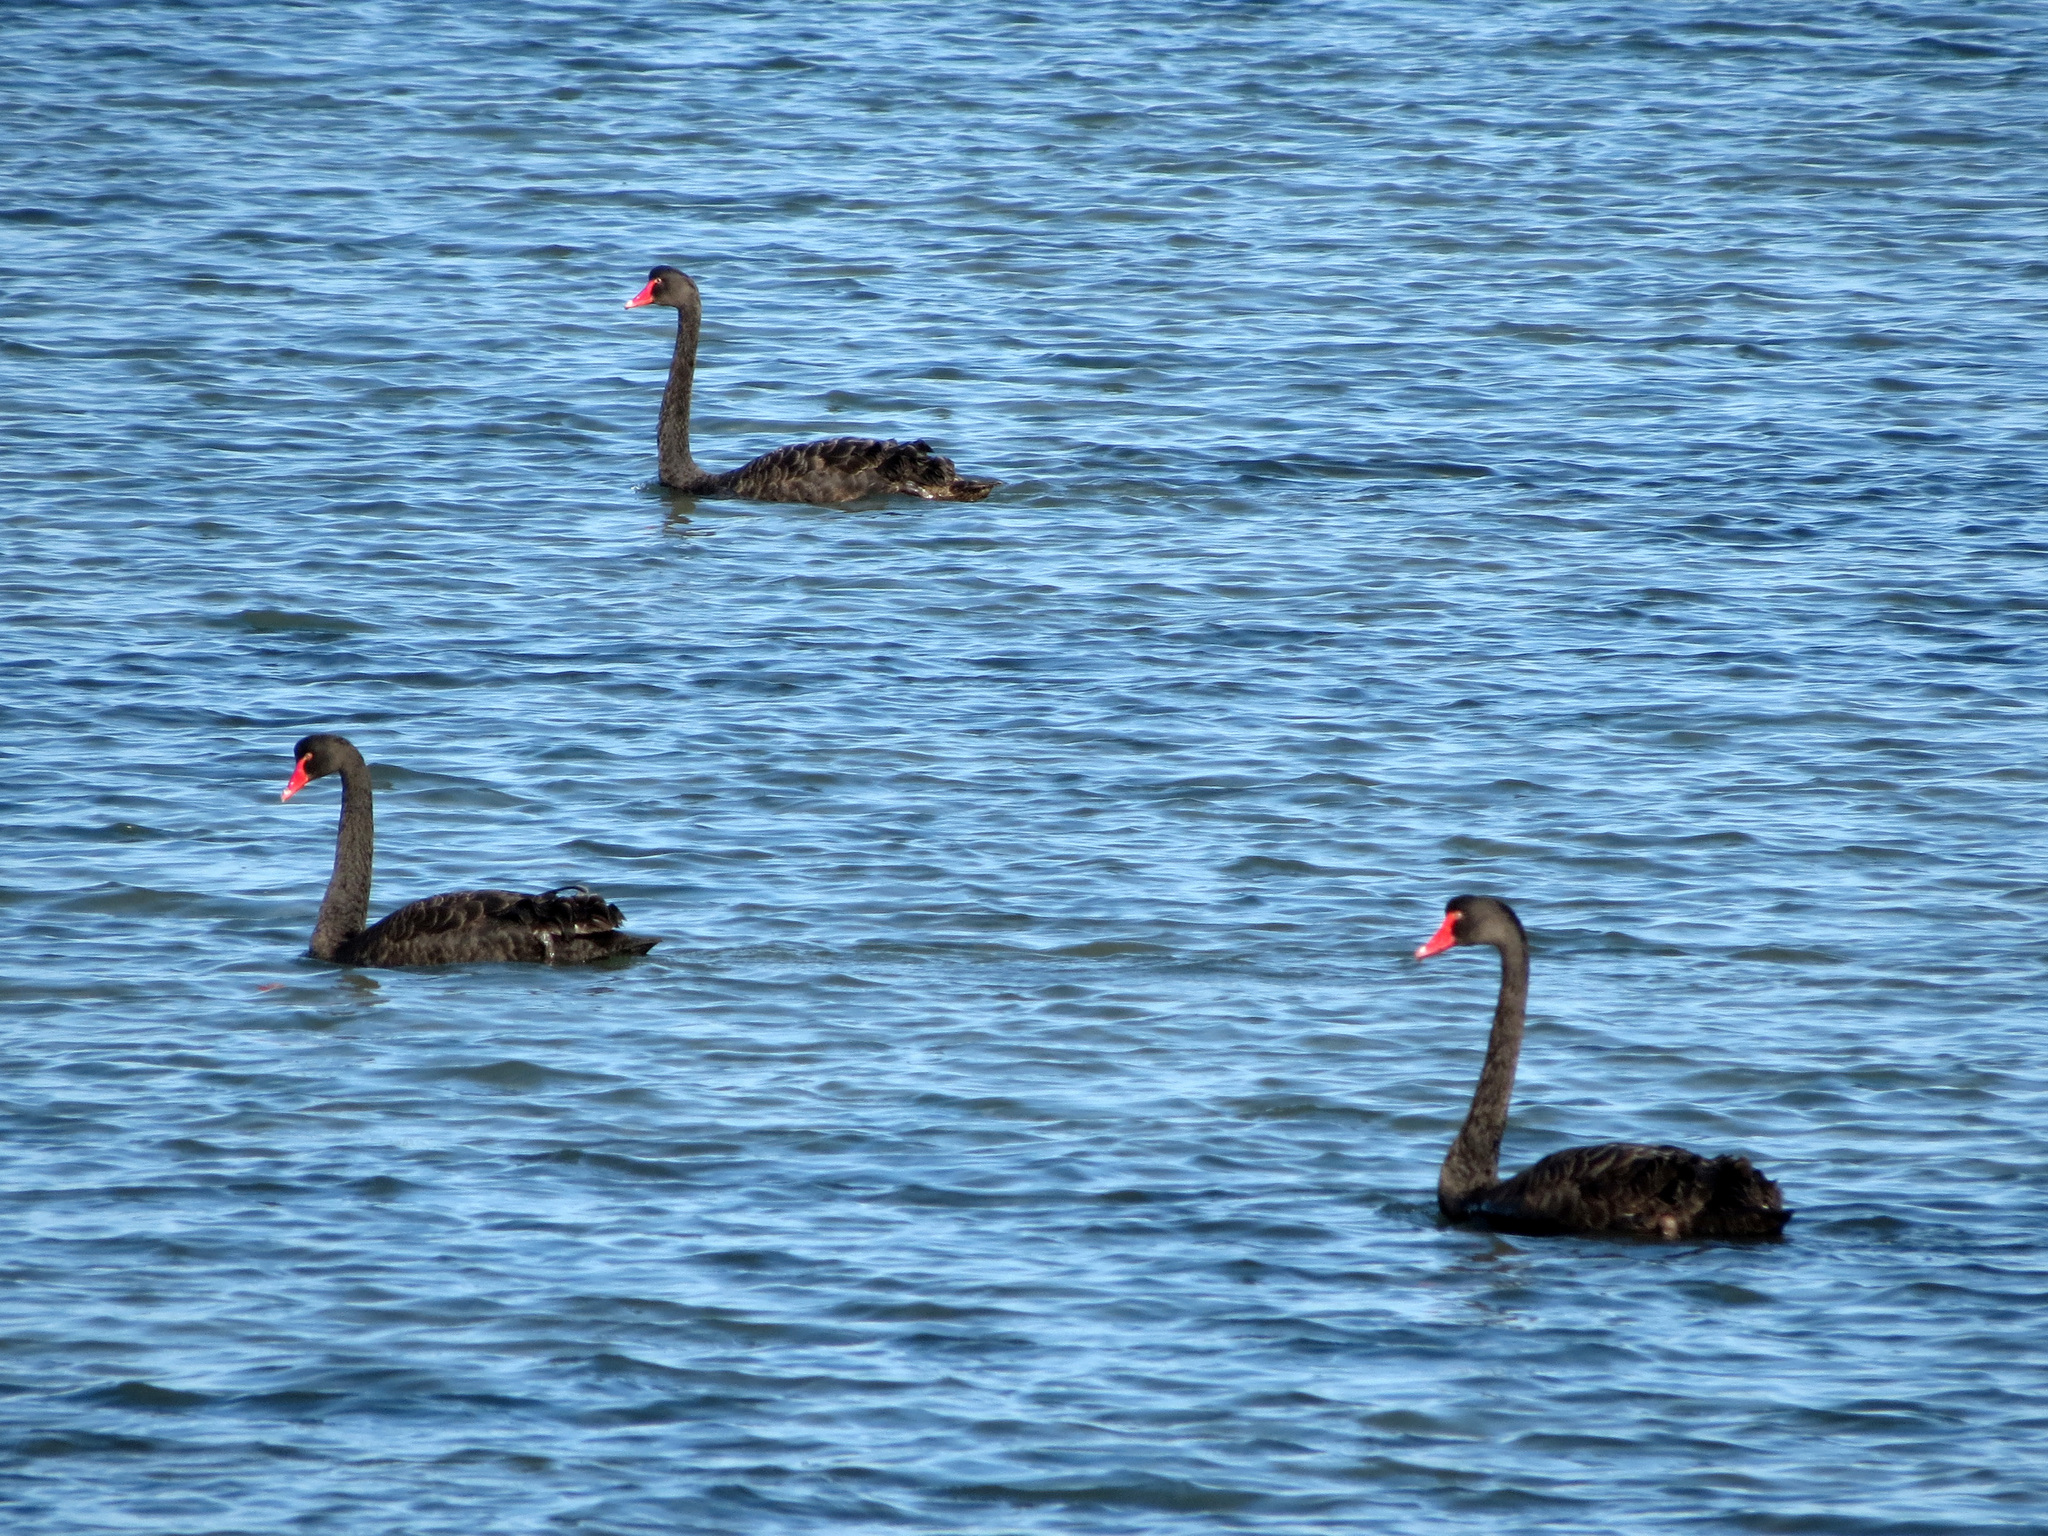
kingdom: Animalia
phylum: Chordata
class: Aves
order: Anseriformes
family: Anatidae
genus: Cygnus
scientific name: Cygnus atratus
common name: Black swan
